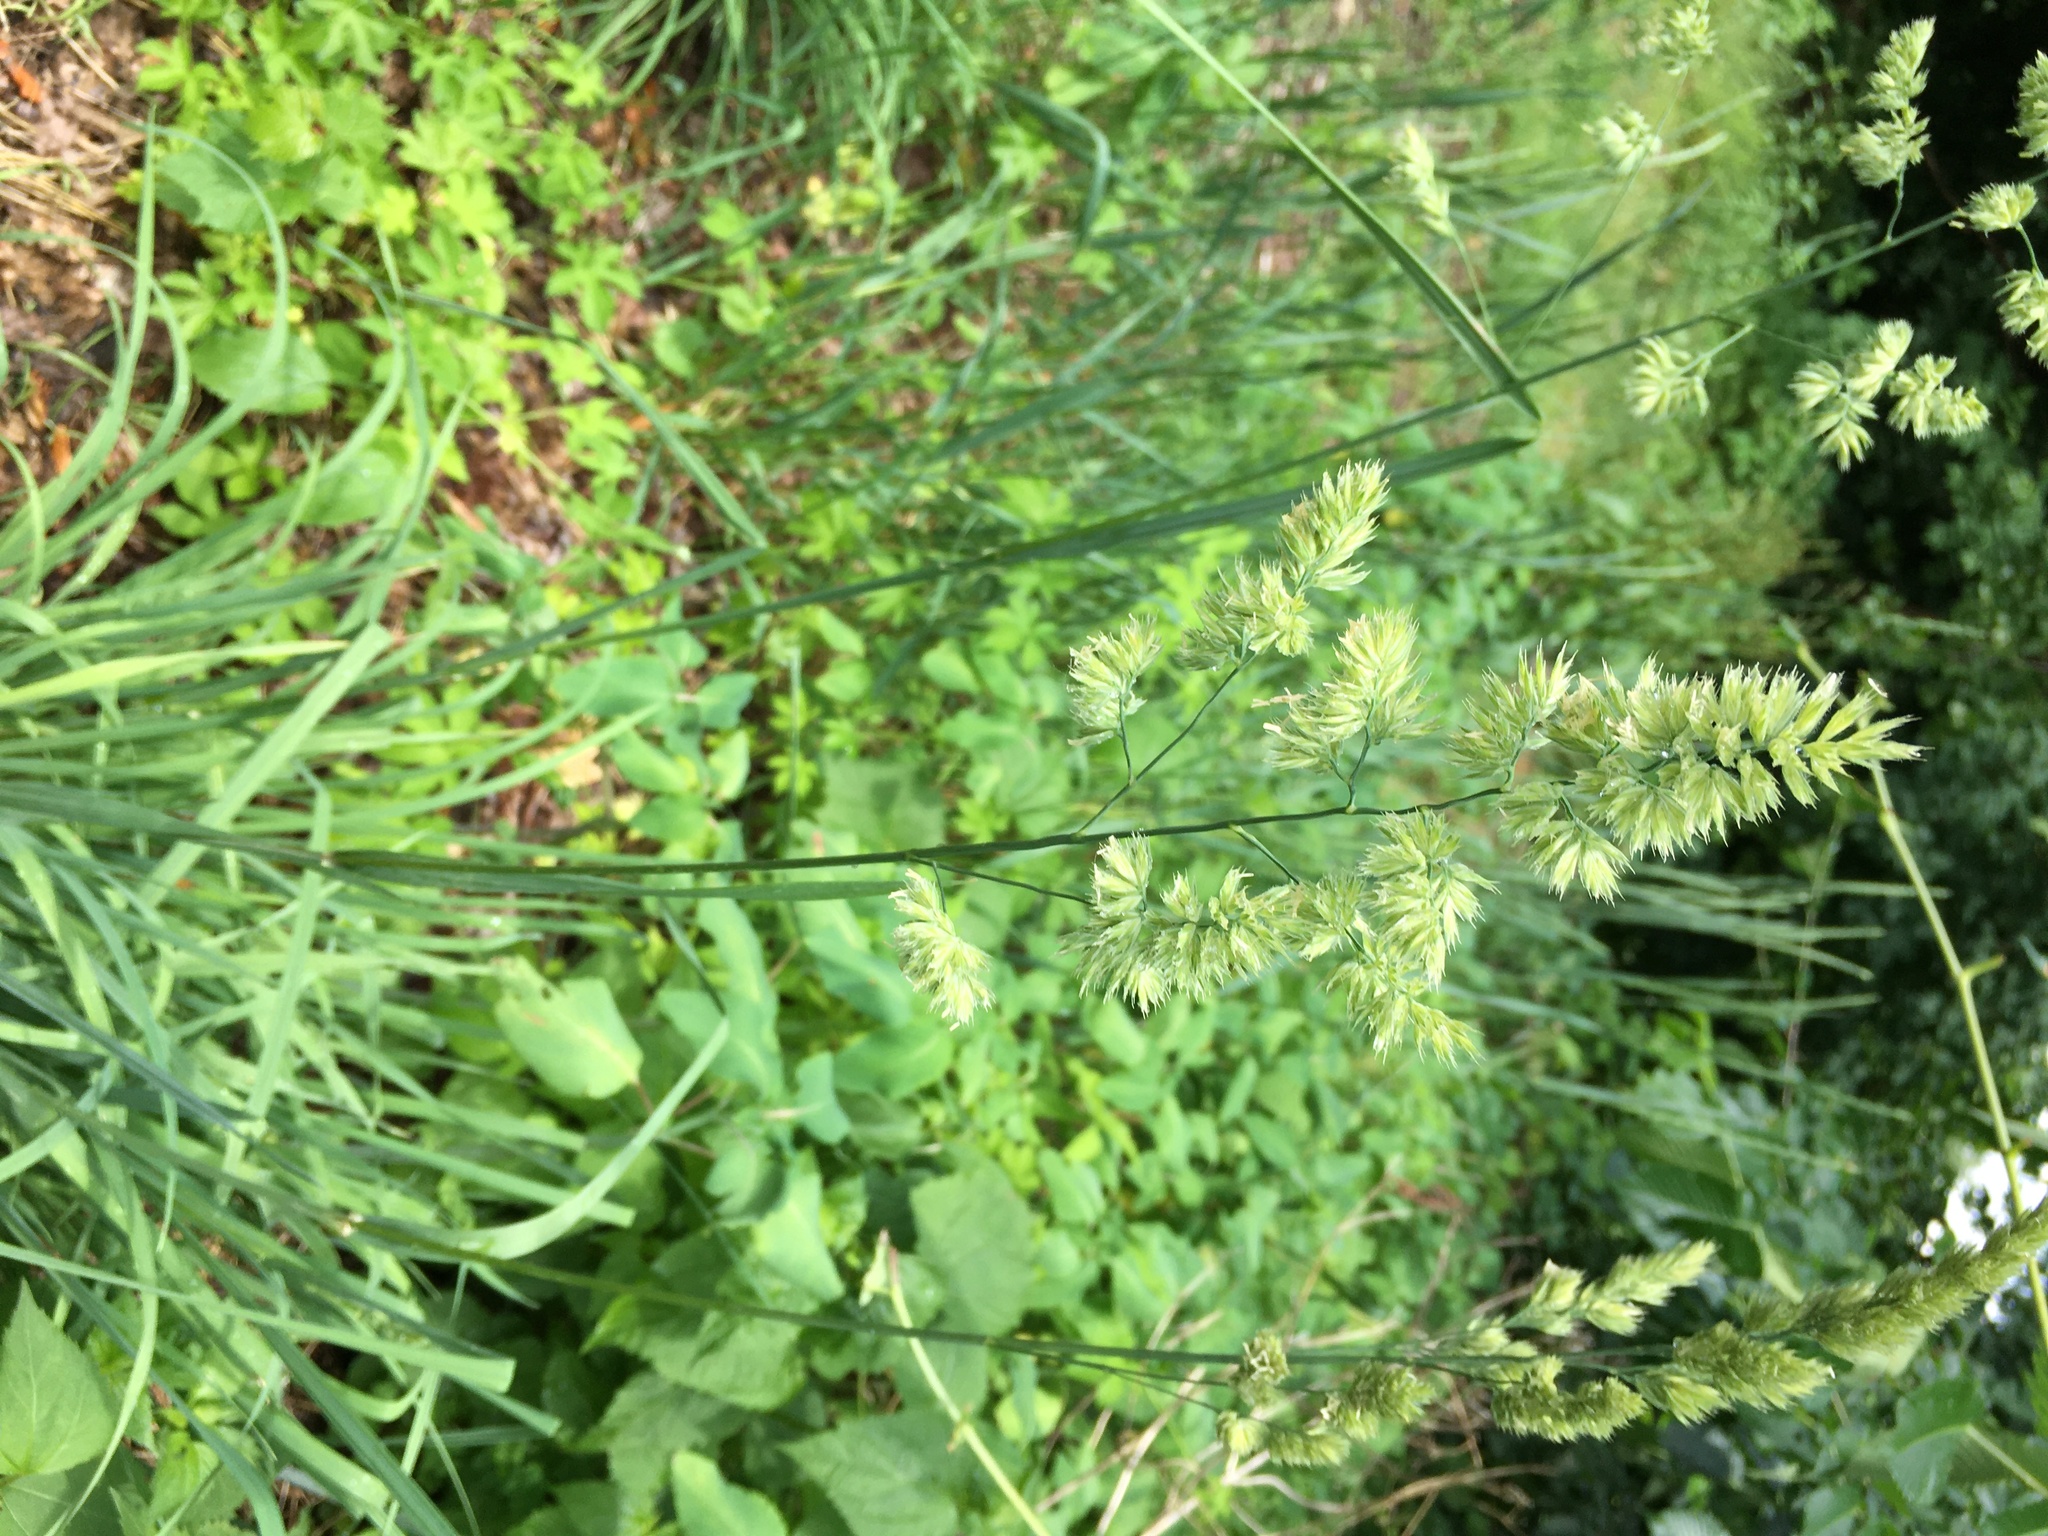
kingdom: Plantae
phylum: Tracheophyta
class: Liliopsida
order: Poales
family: Poaceae
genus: Dactylis
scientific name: Dactylis glomerata
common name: Orchardgrass
